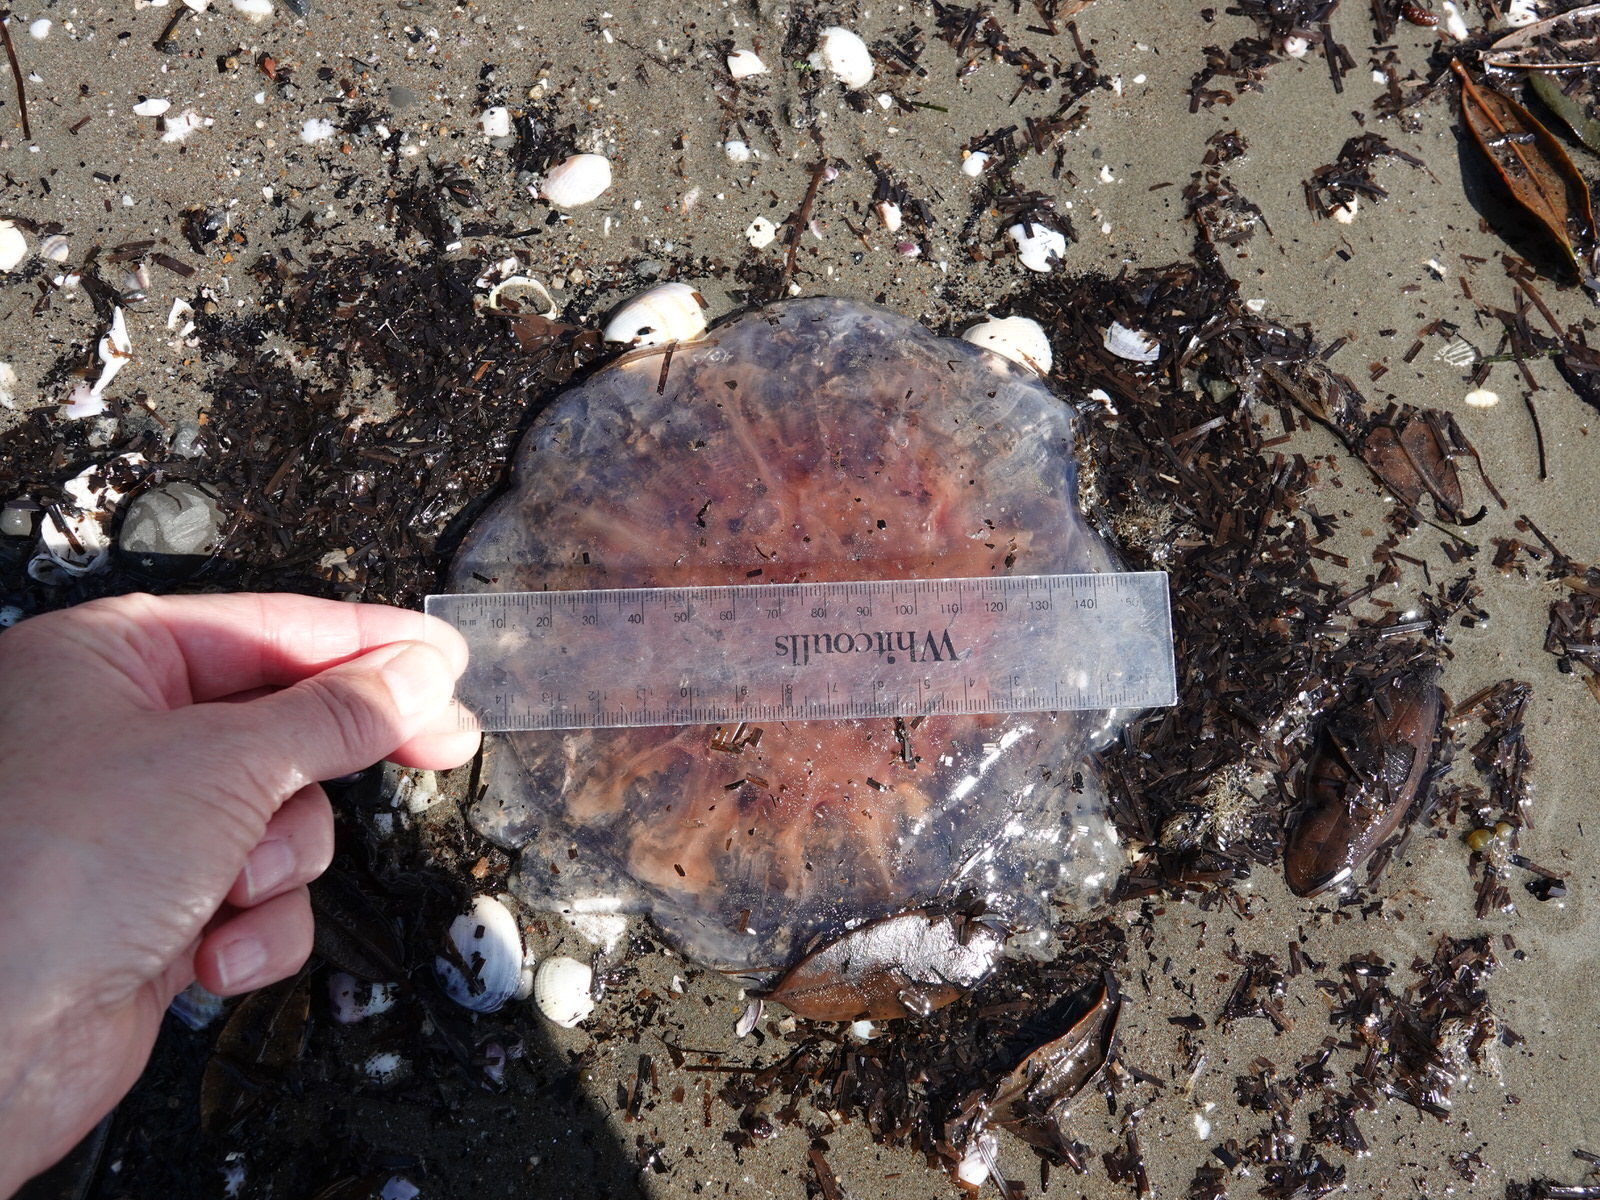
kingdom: Animalia
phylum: Cnidaria
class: Scyphozoa
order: Semaeostomeae
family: Cyaneidae
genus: Cyanea
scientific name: Cyanea
